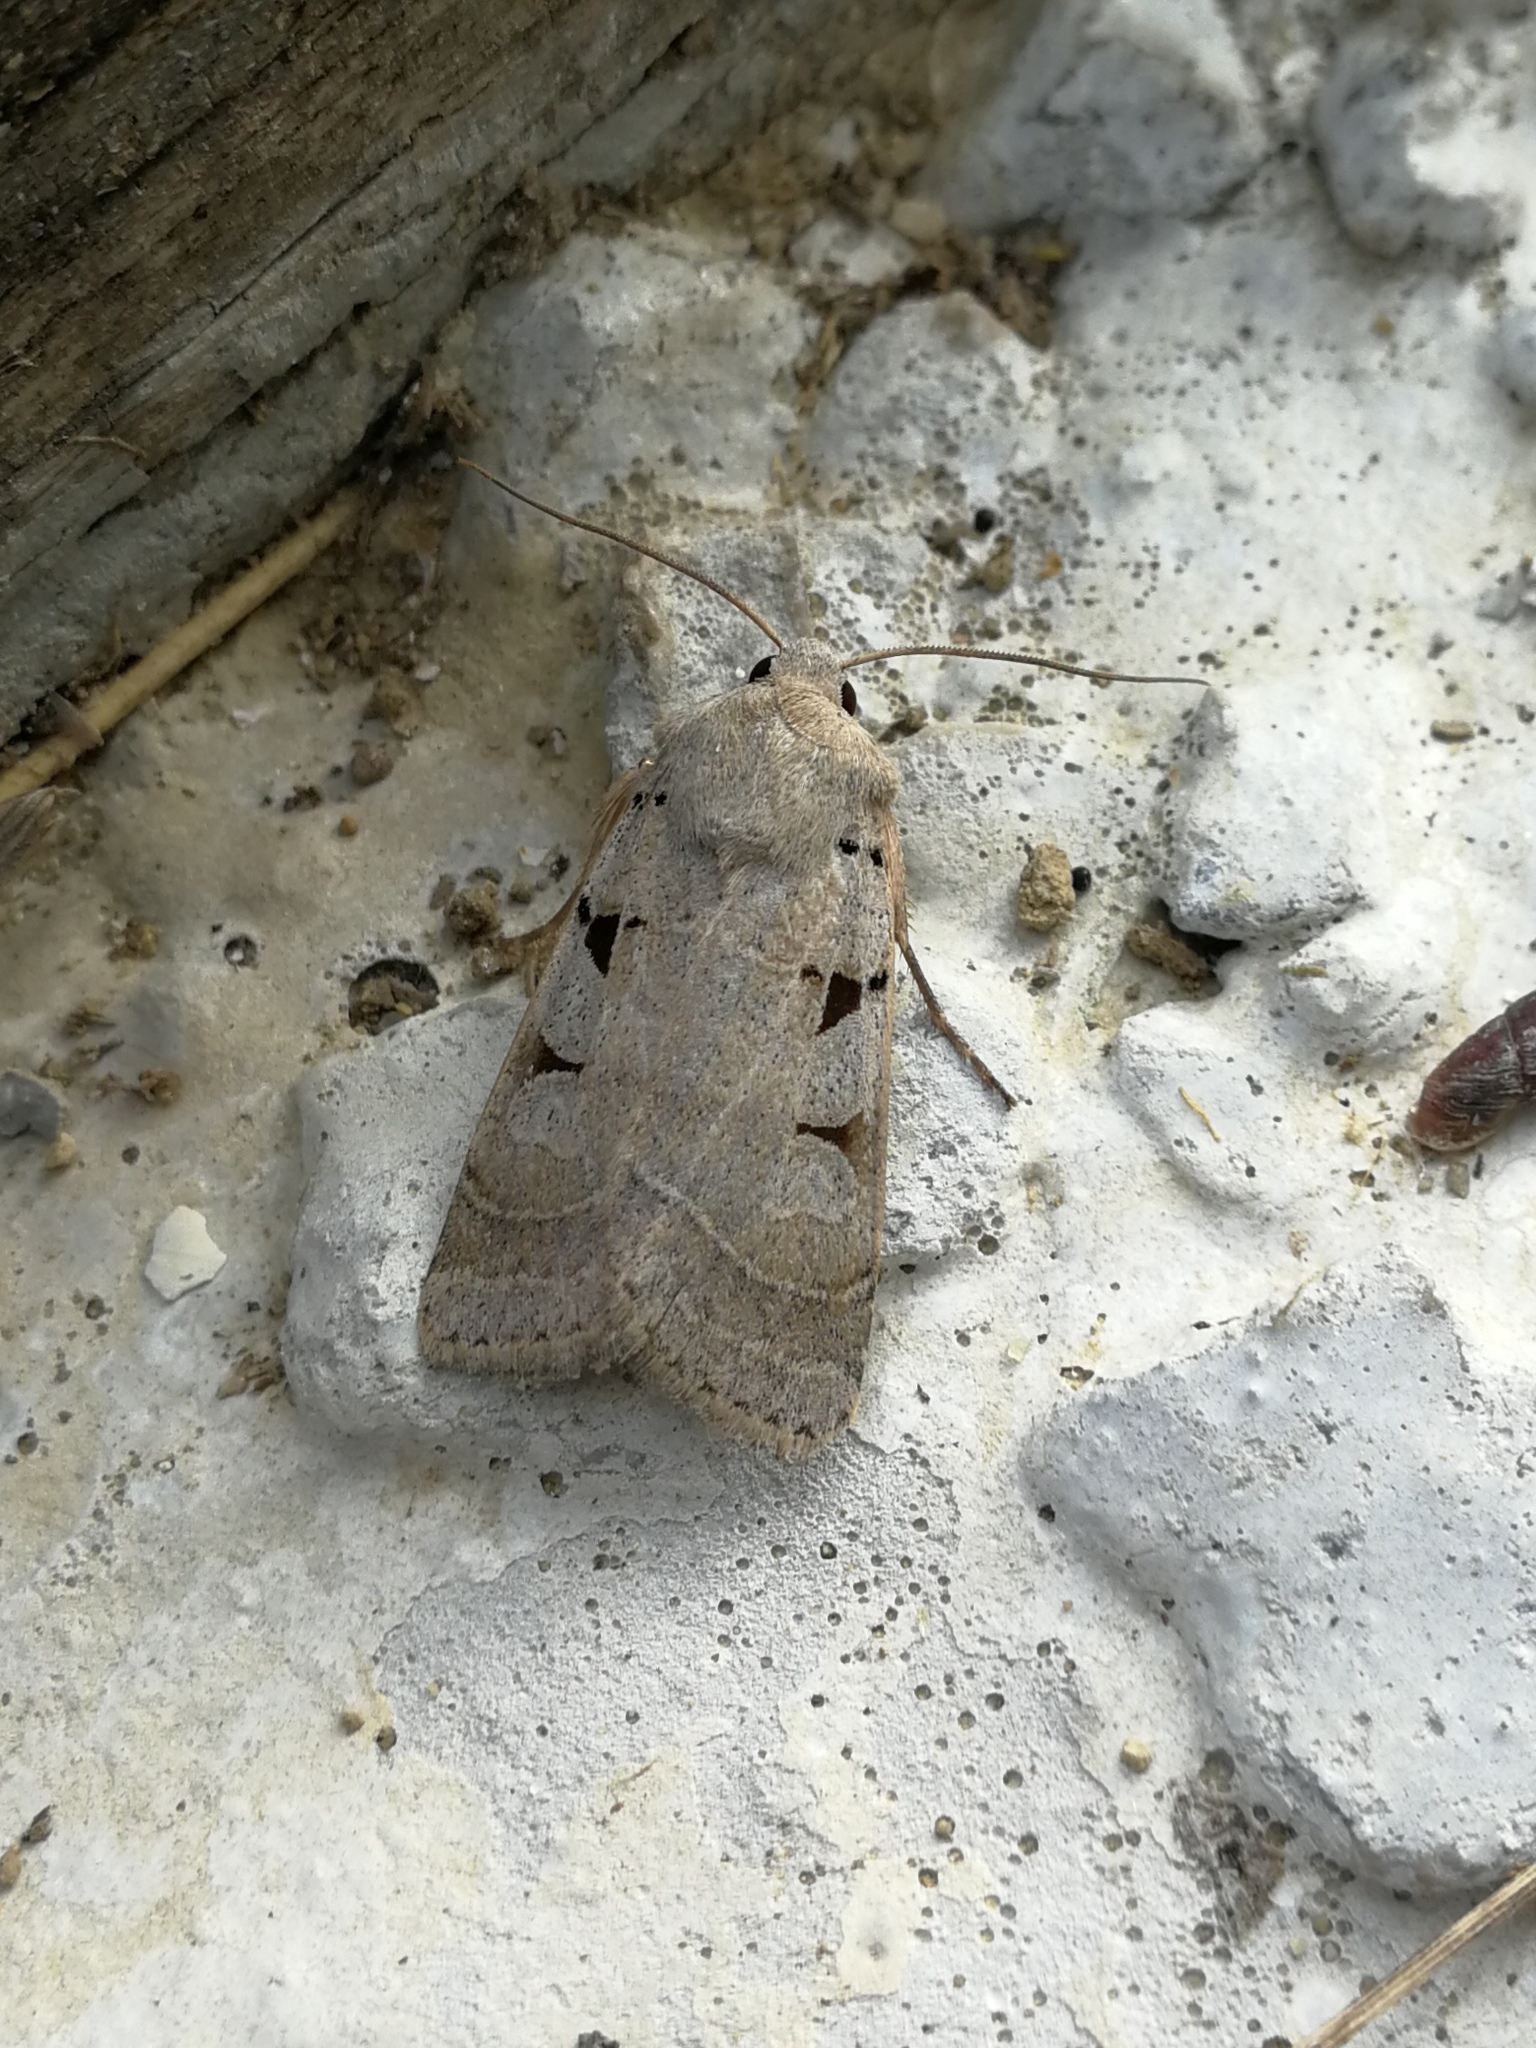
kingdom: Animalia
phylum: Arthropoda
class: Insecta
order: Lepidoptera
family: Noctuidae
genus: Eugnorisma
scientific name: Eugnorisma glareosa
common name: Autumnal rustic
